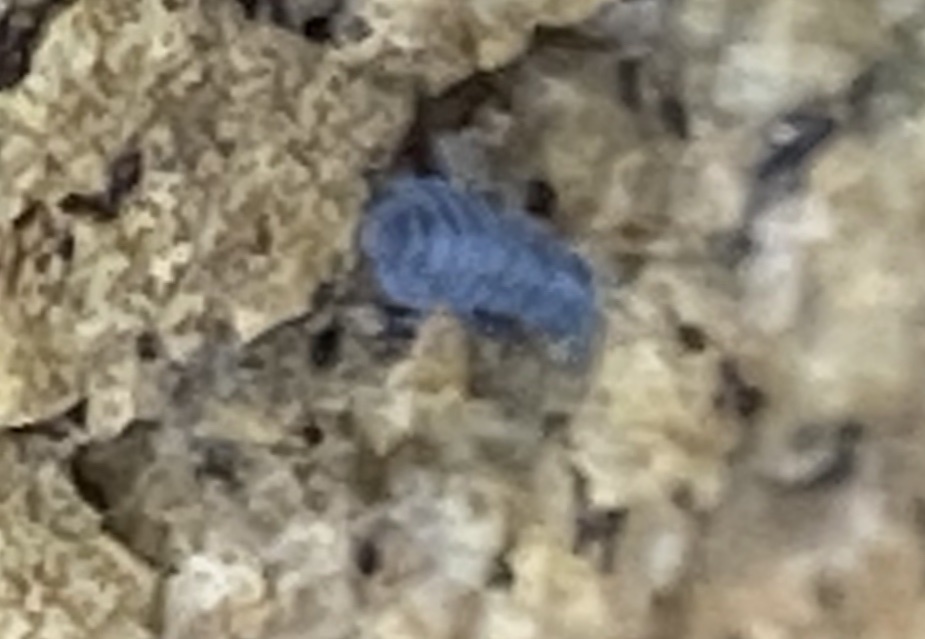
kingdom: Animalia
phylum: Arthropoda
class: Collembola
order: Poduromorpha
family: Neanuridae
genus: Anurida
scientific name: Anurida maritima
